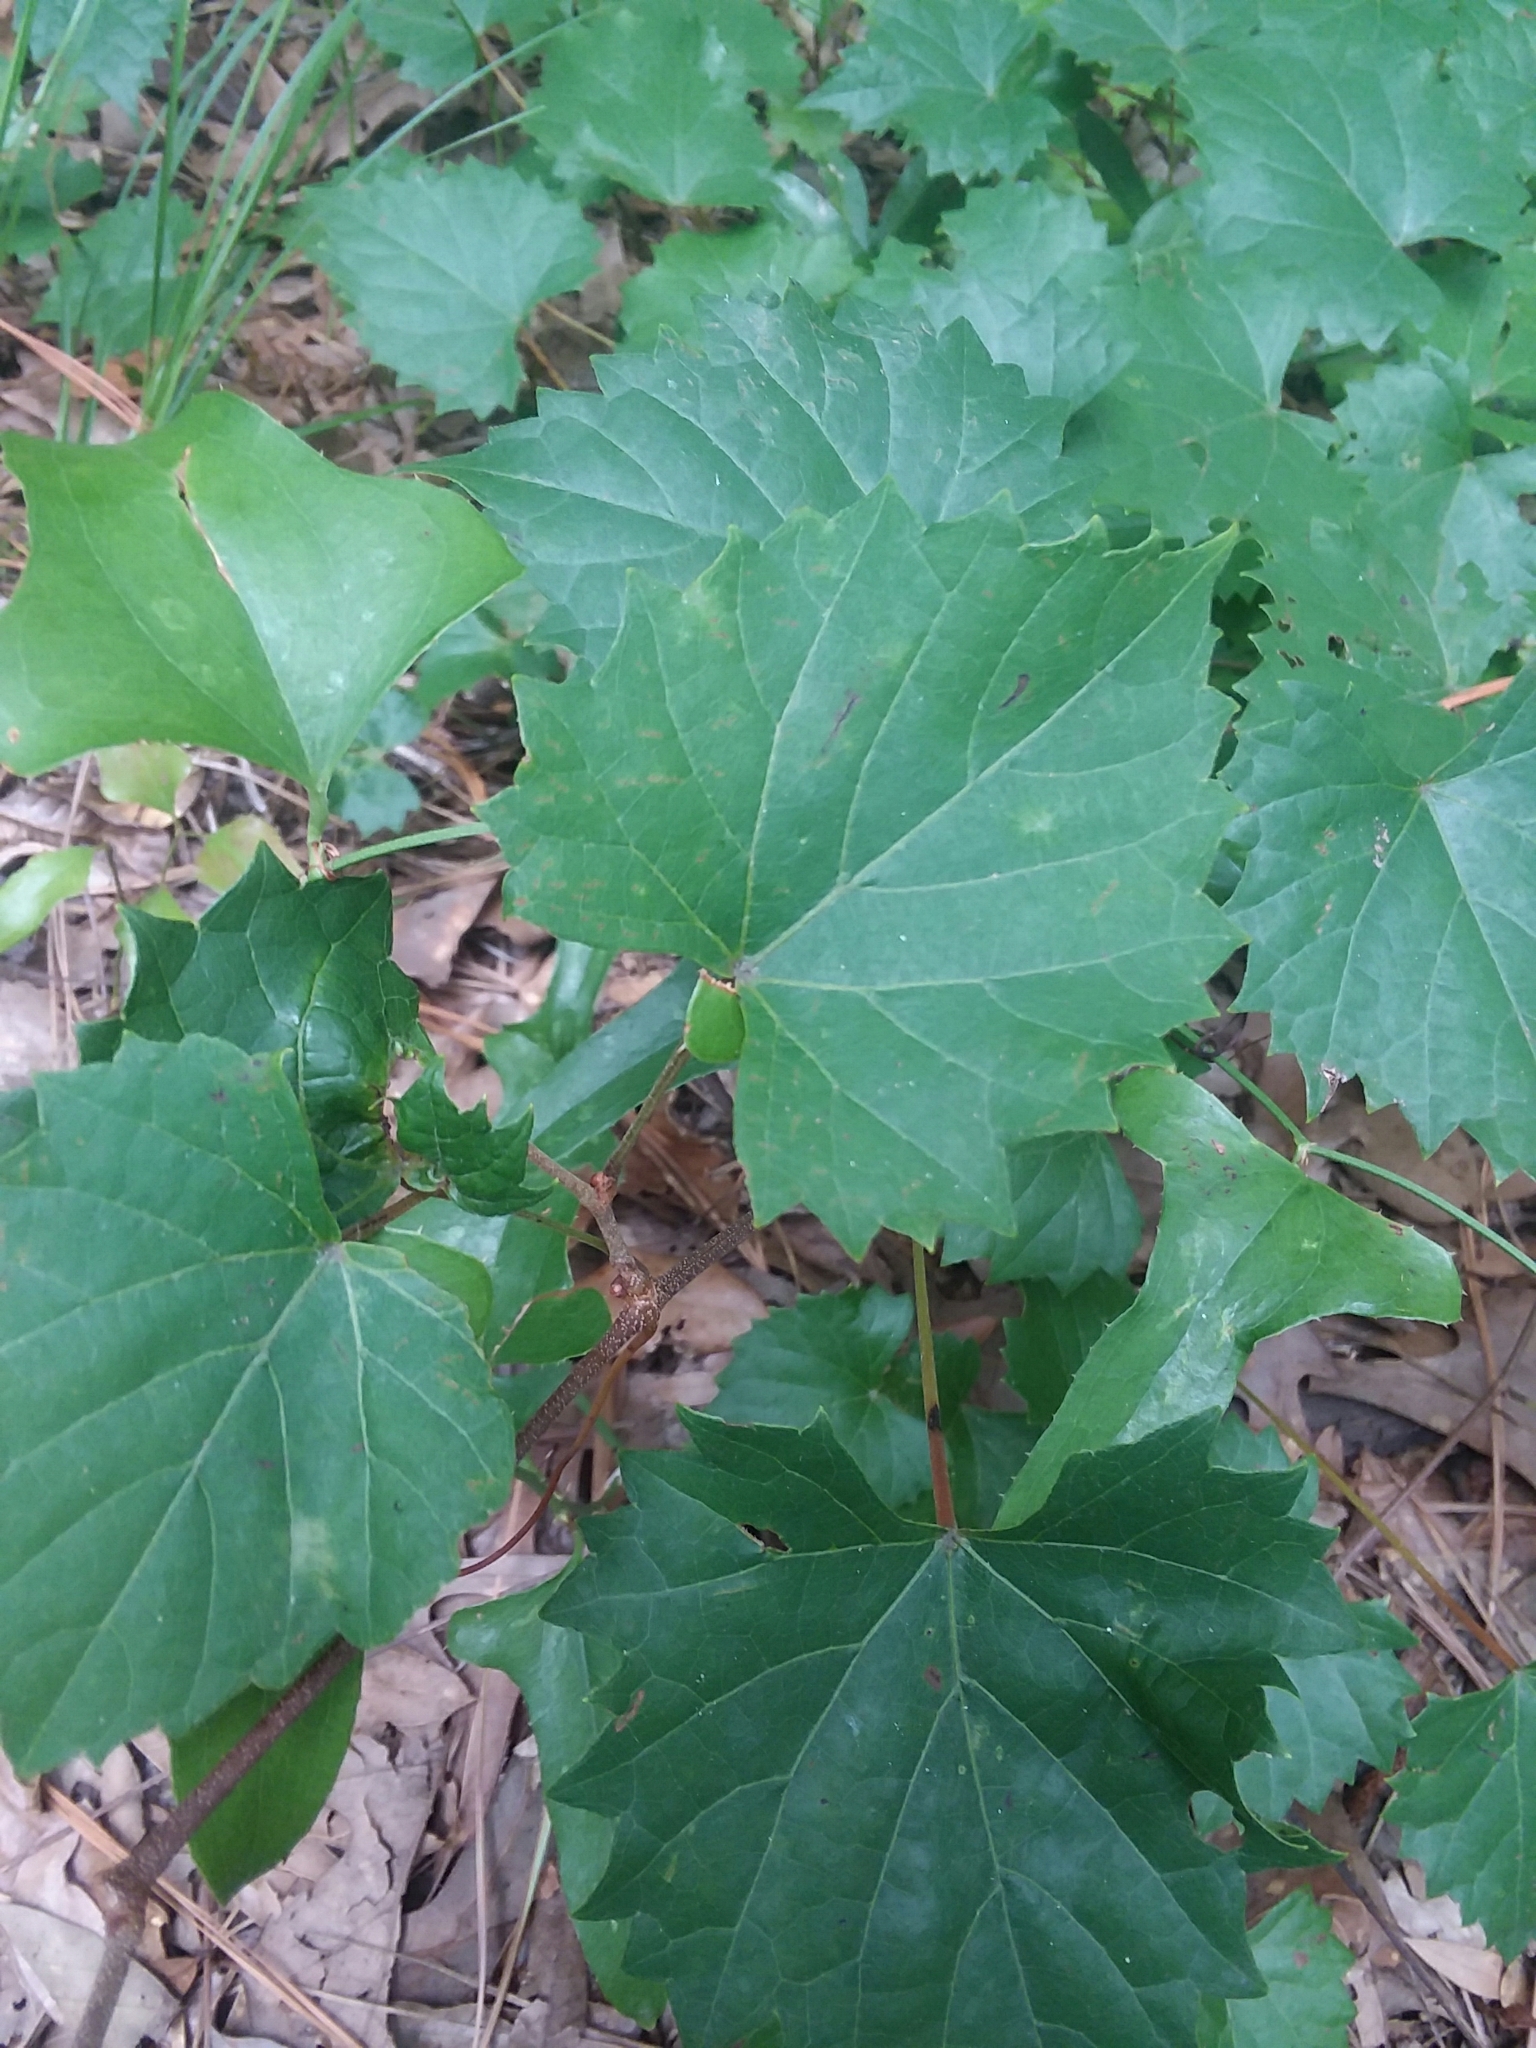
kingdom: Plantae
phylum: Tracheophyta
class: Magnoliopsida
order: Vitales
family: Vitaceae
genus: Vitis
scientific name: Vitis rotundifolia
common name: Muscadine grape
